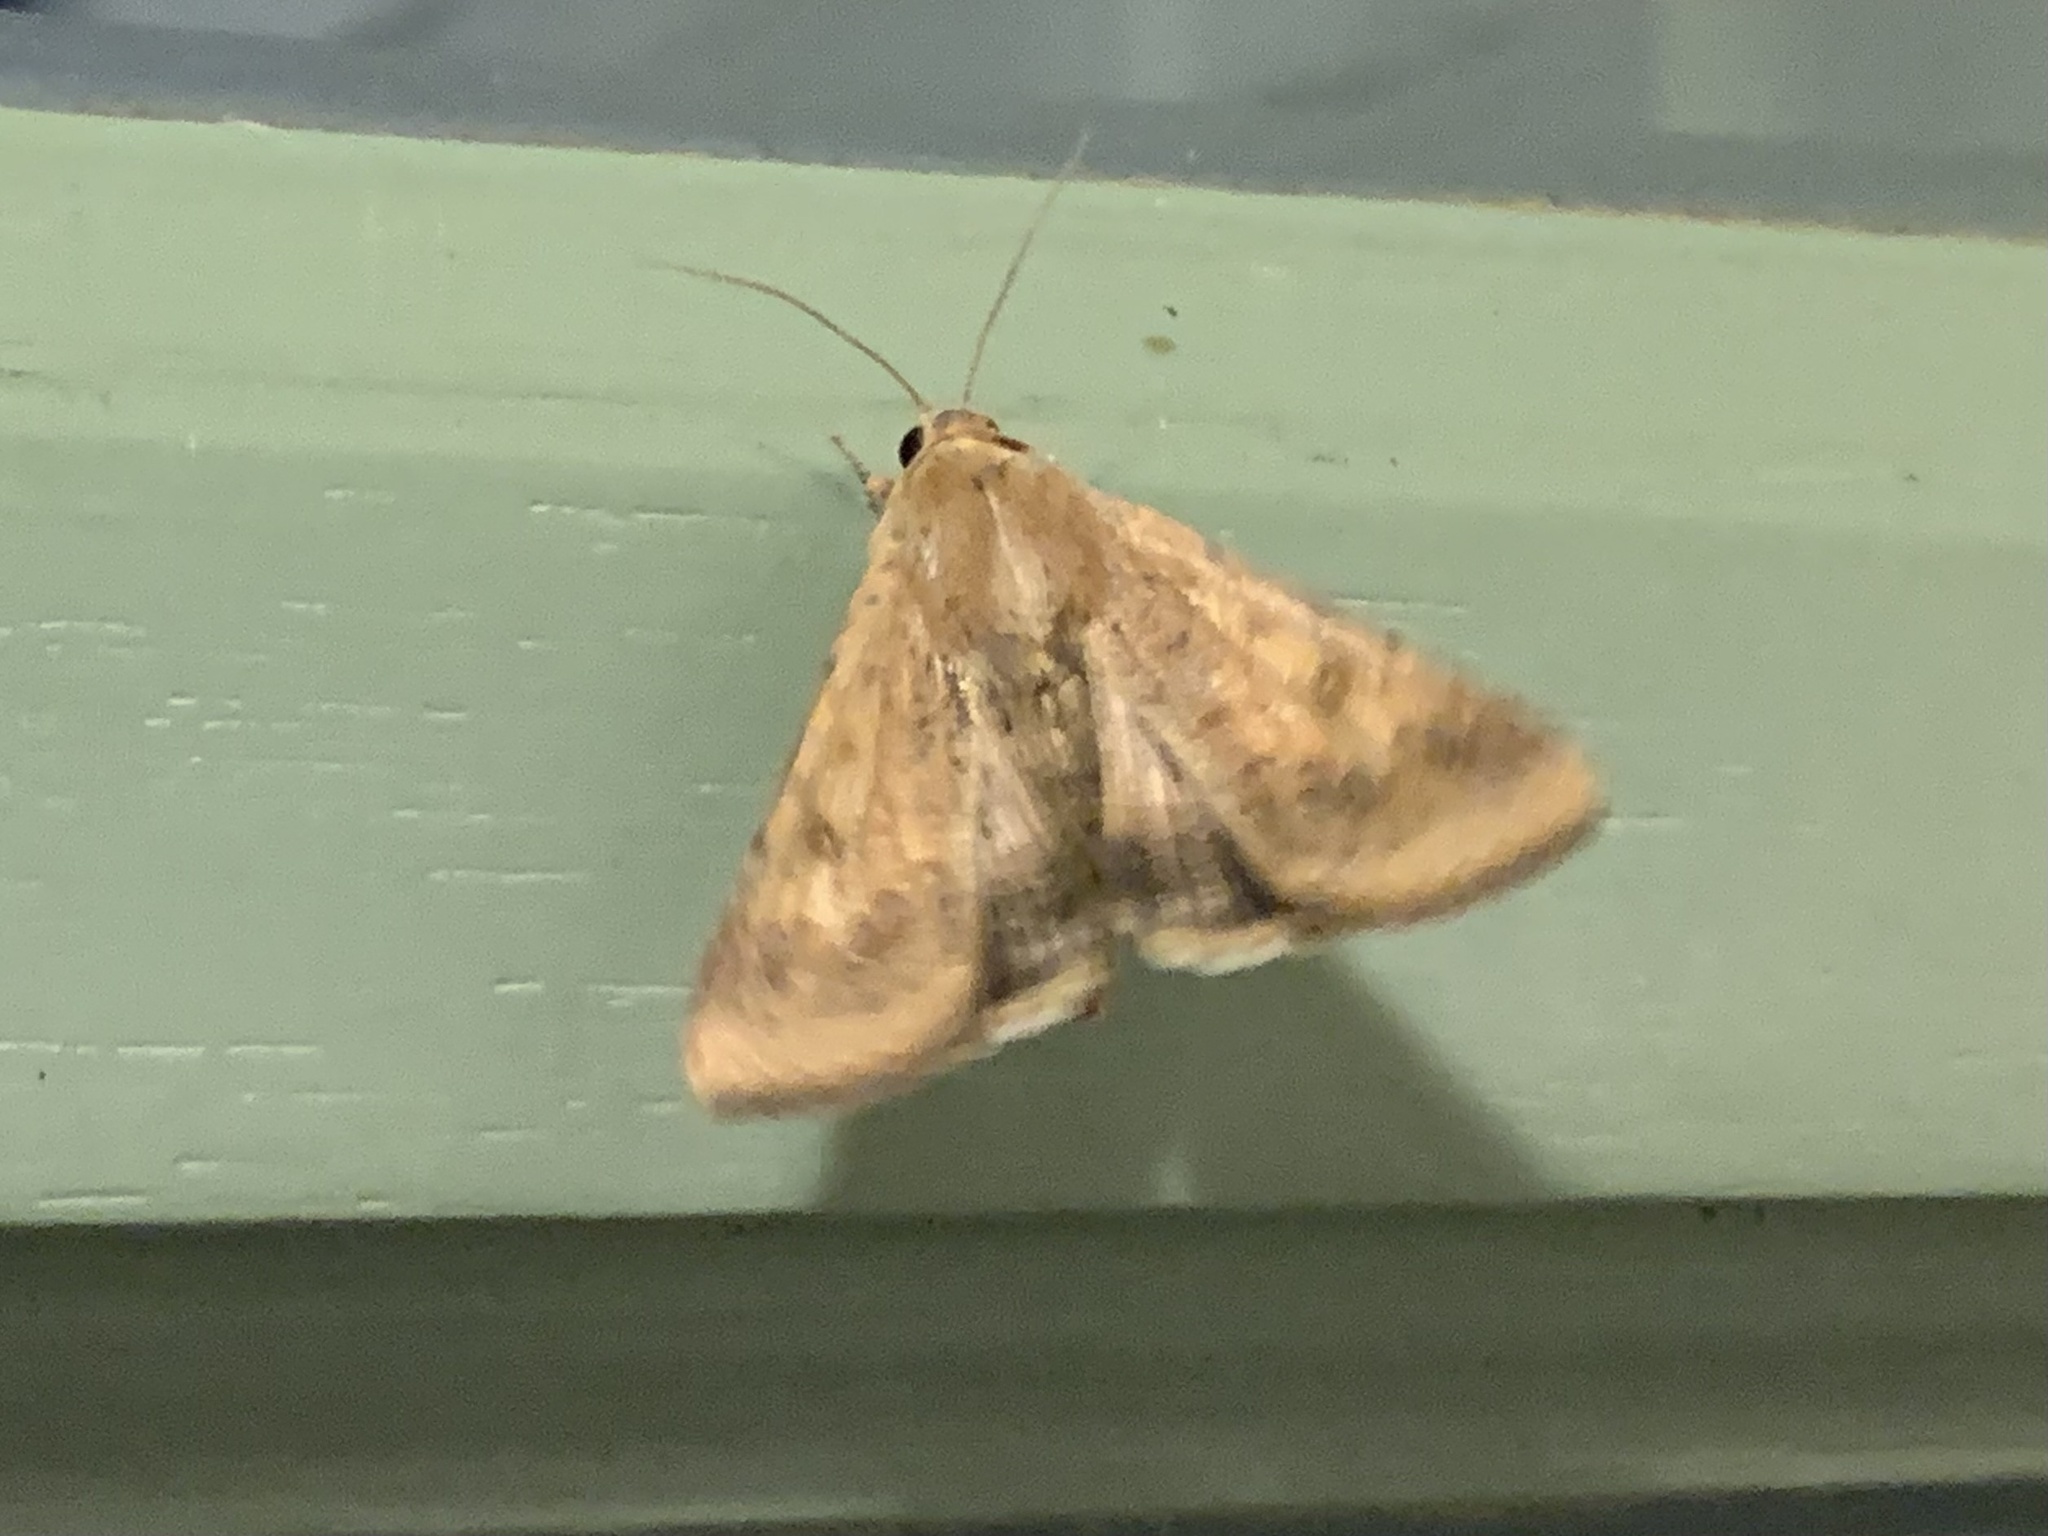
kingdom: Animalia
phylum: Arthropoda
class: Insecta
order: Lepidoptera
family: Noctuidae
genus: Helicoverpa
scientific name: Helicoverpa armigera
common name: Cotton bollworm
